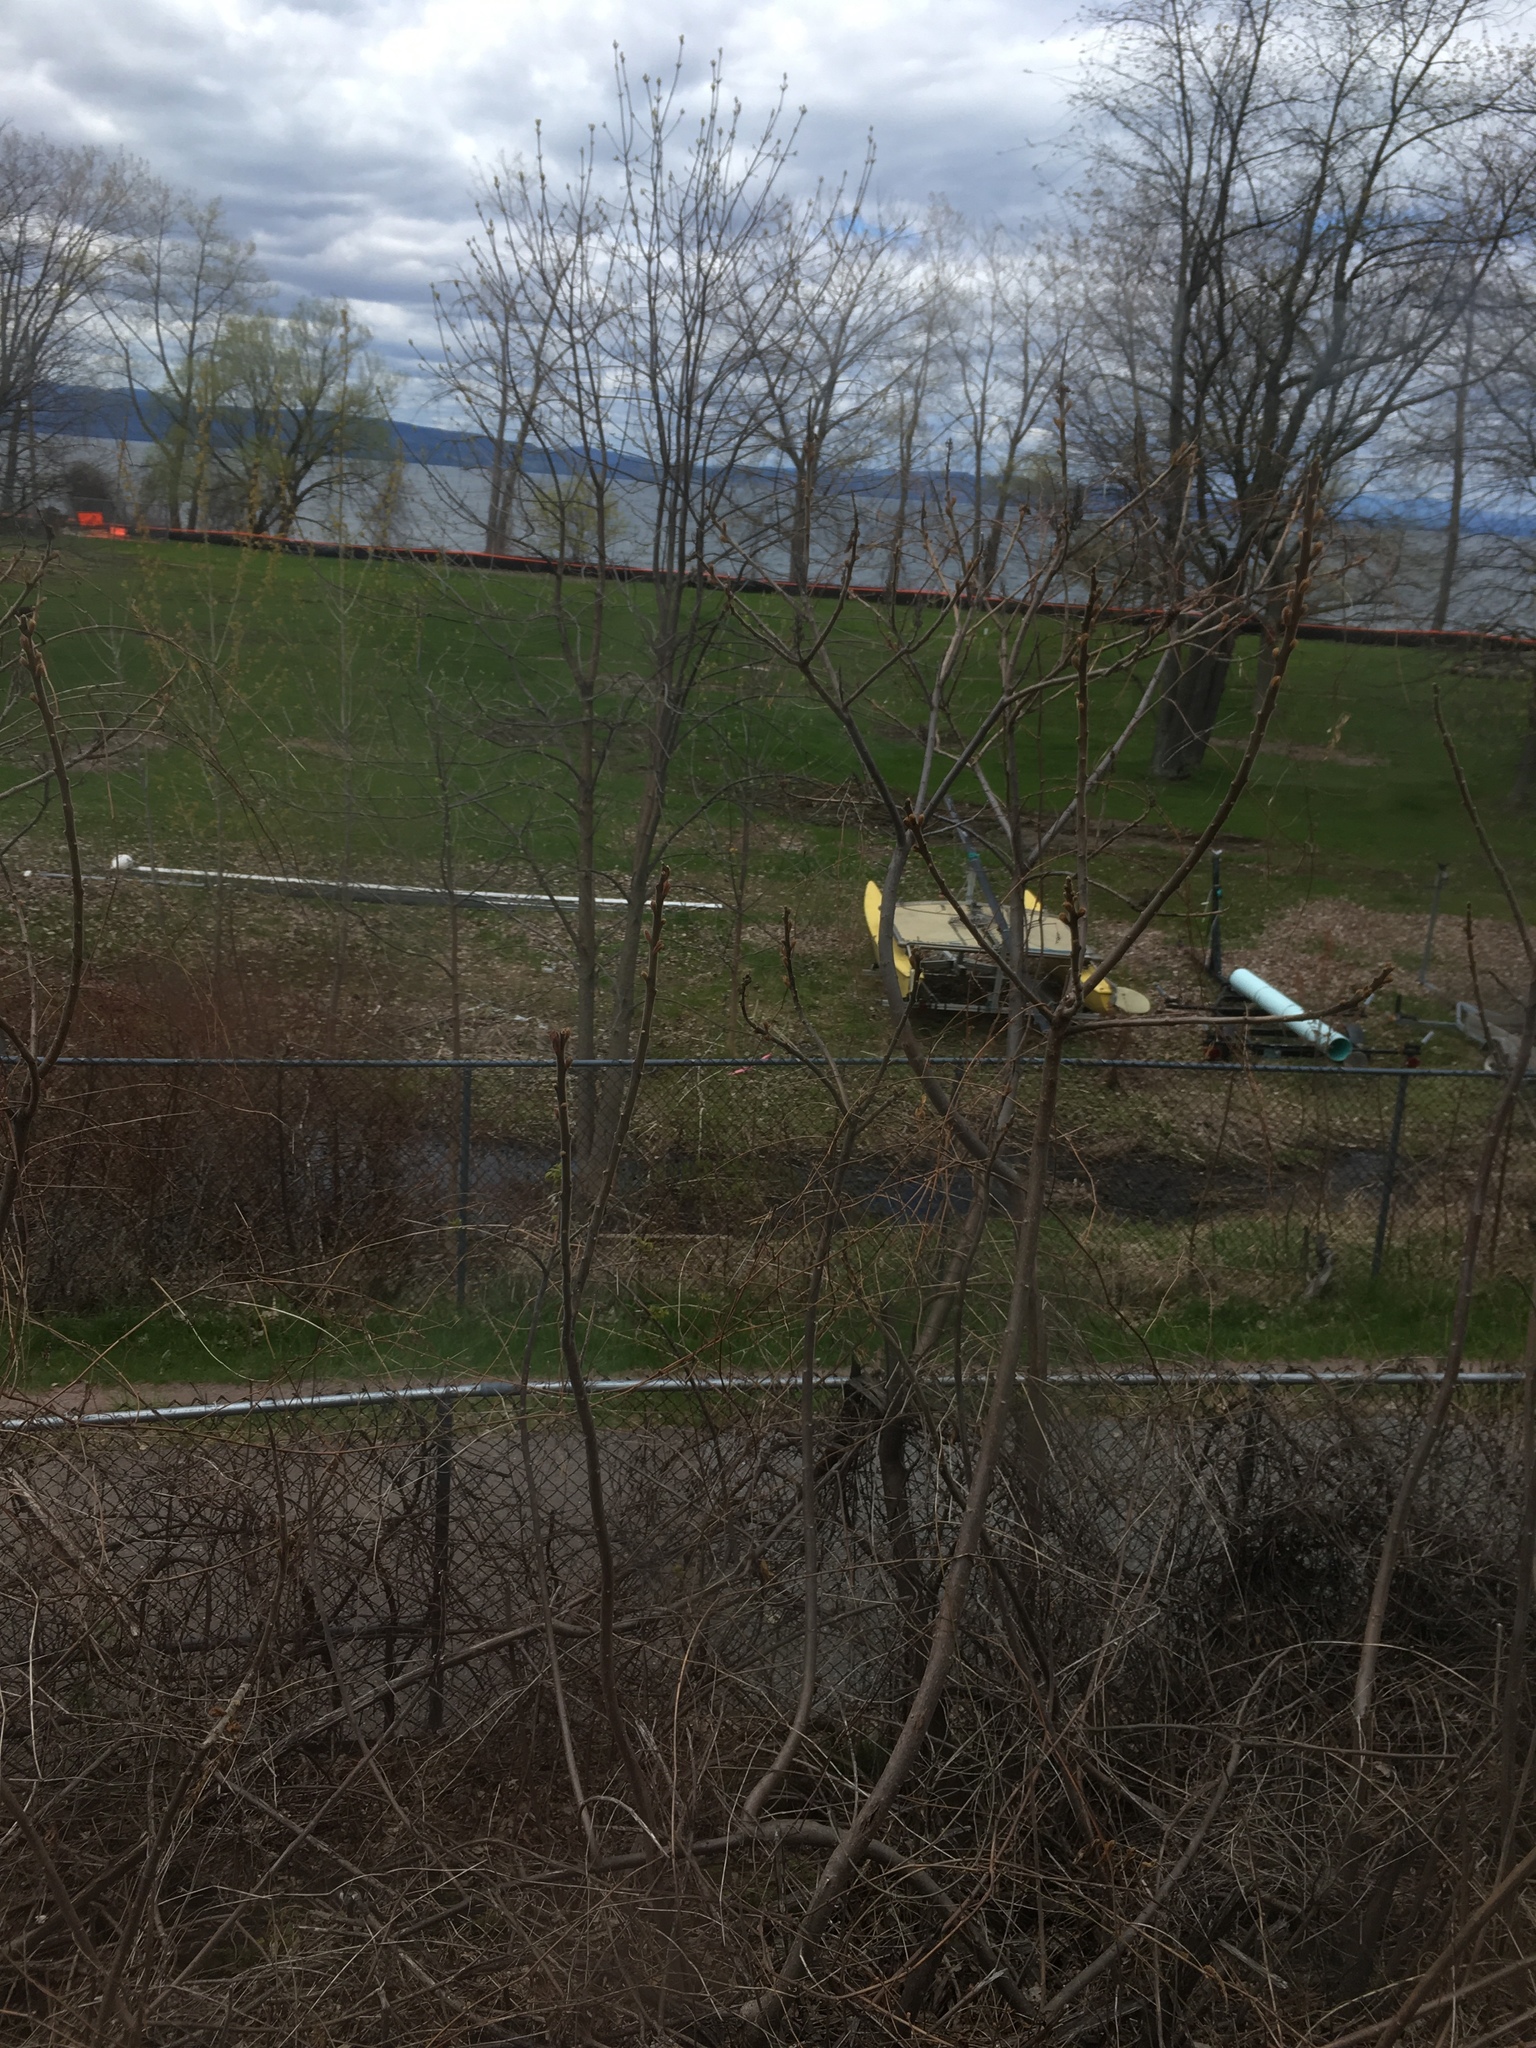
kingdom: Plantae
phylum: Tracheophyta
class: Magnoliopsida
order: Sapindales
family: Anacardiaceae
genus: Rhus
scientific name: Rhus typhina
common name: Staghorn sumac
